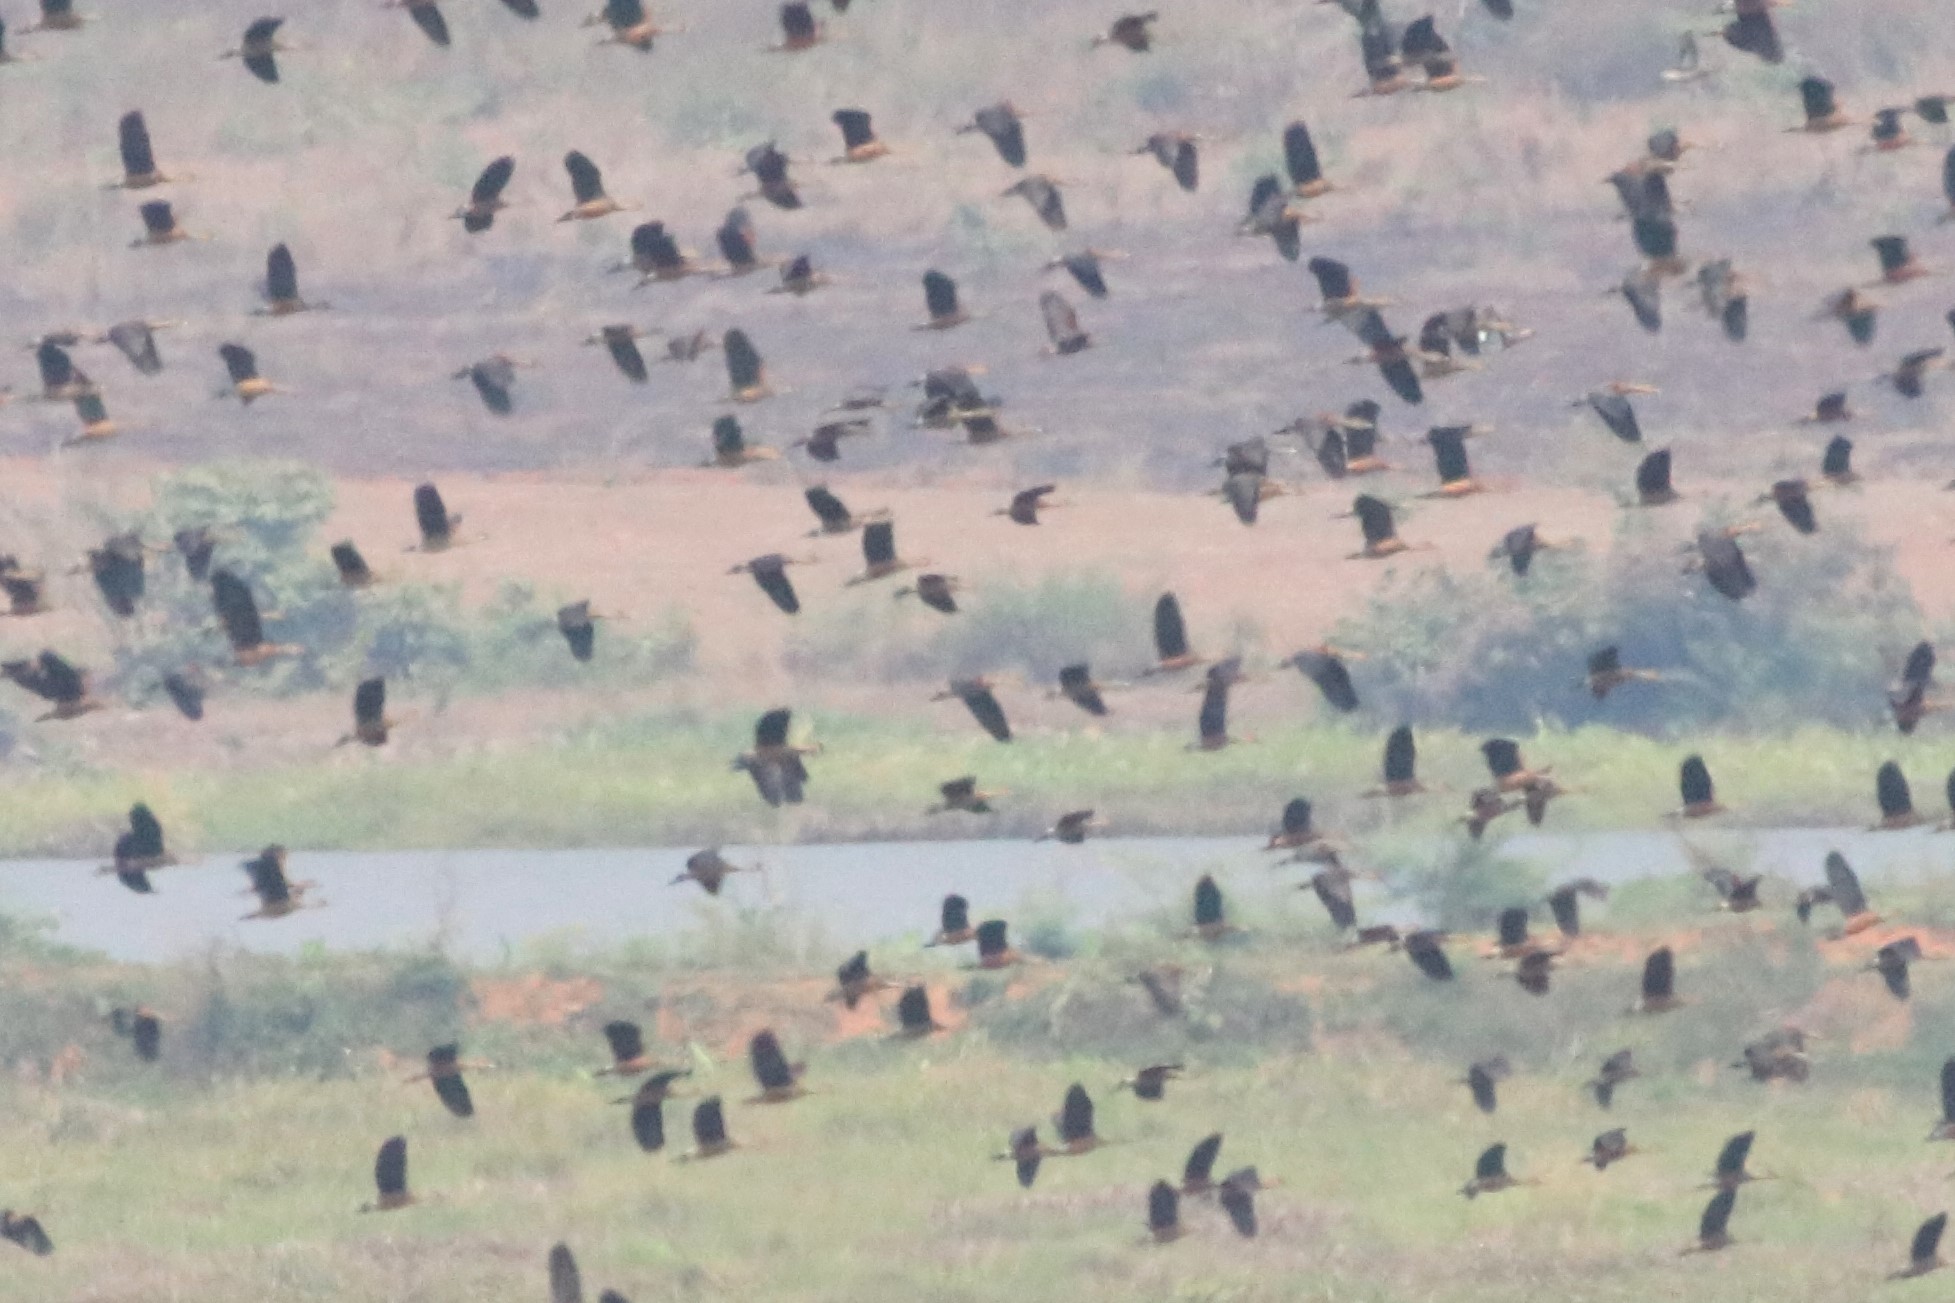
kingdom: Animalia
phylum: Chordata
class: Aves
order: Anseriformes
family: Anatidae
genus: Dendrocygna
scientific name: Dendrocygna javanica
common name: Lesser whistling-duck
